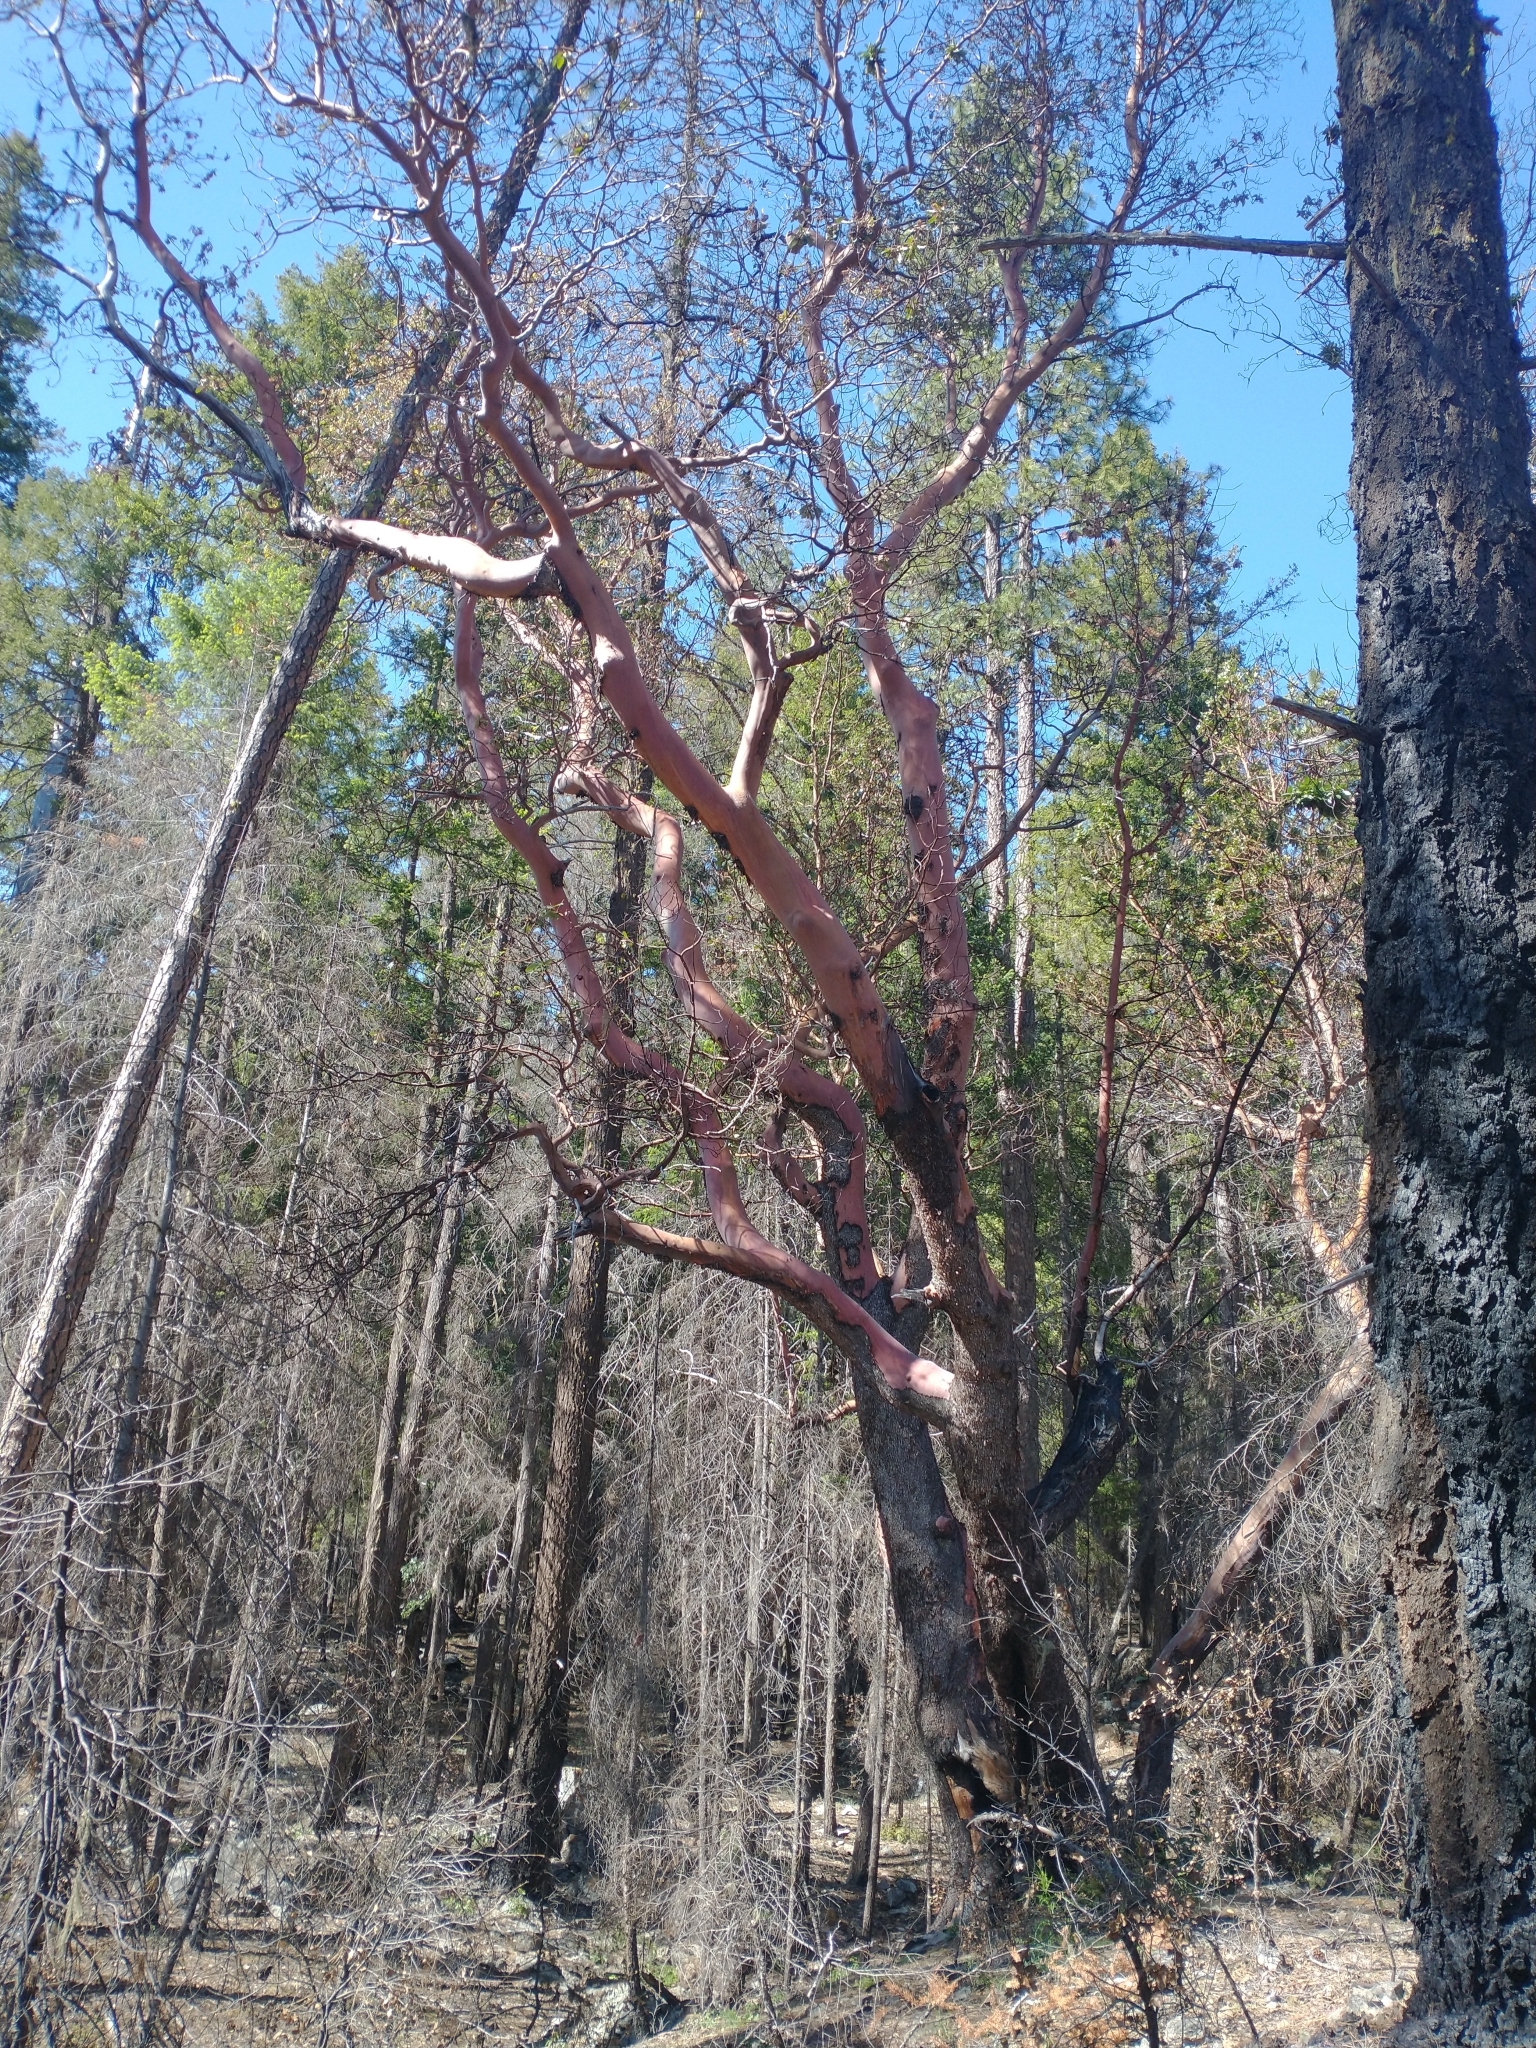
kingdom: Plantae
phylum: Tracheophyta
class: Magnoliopsida
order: Ericales
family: Ericaceae
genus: Arbutus
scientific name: Arbutus menziesii
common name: Pacific madrone
